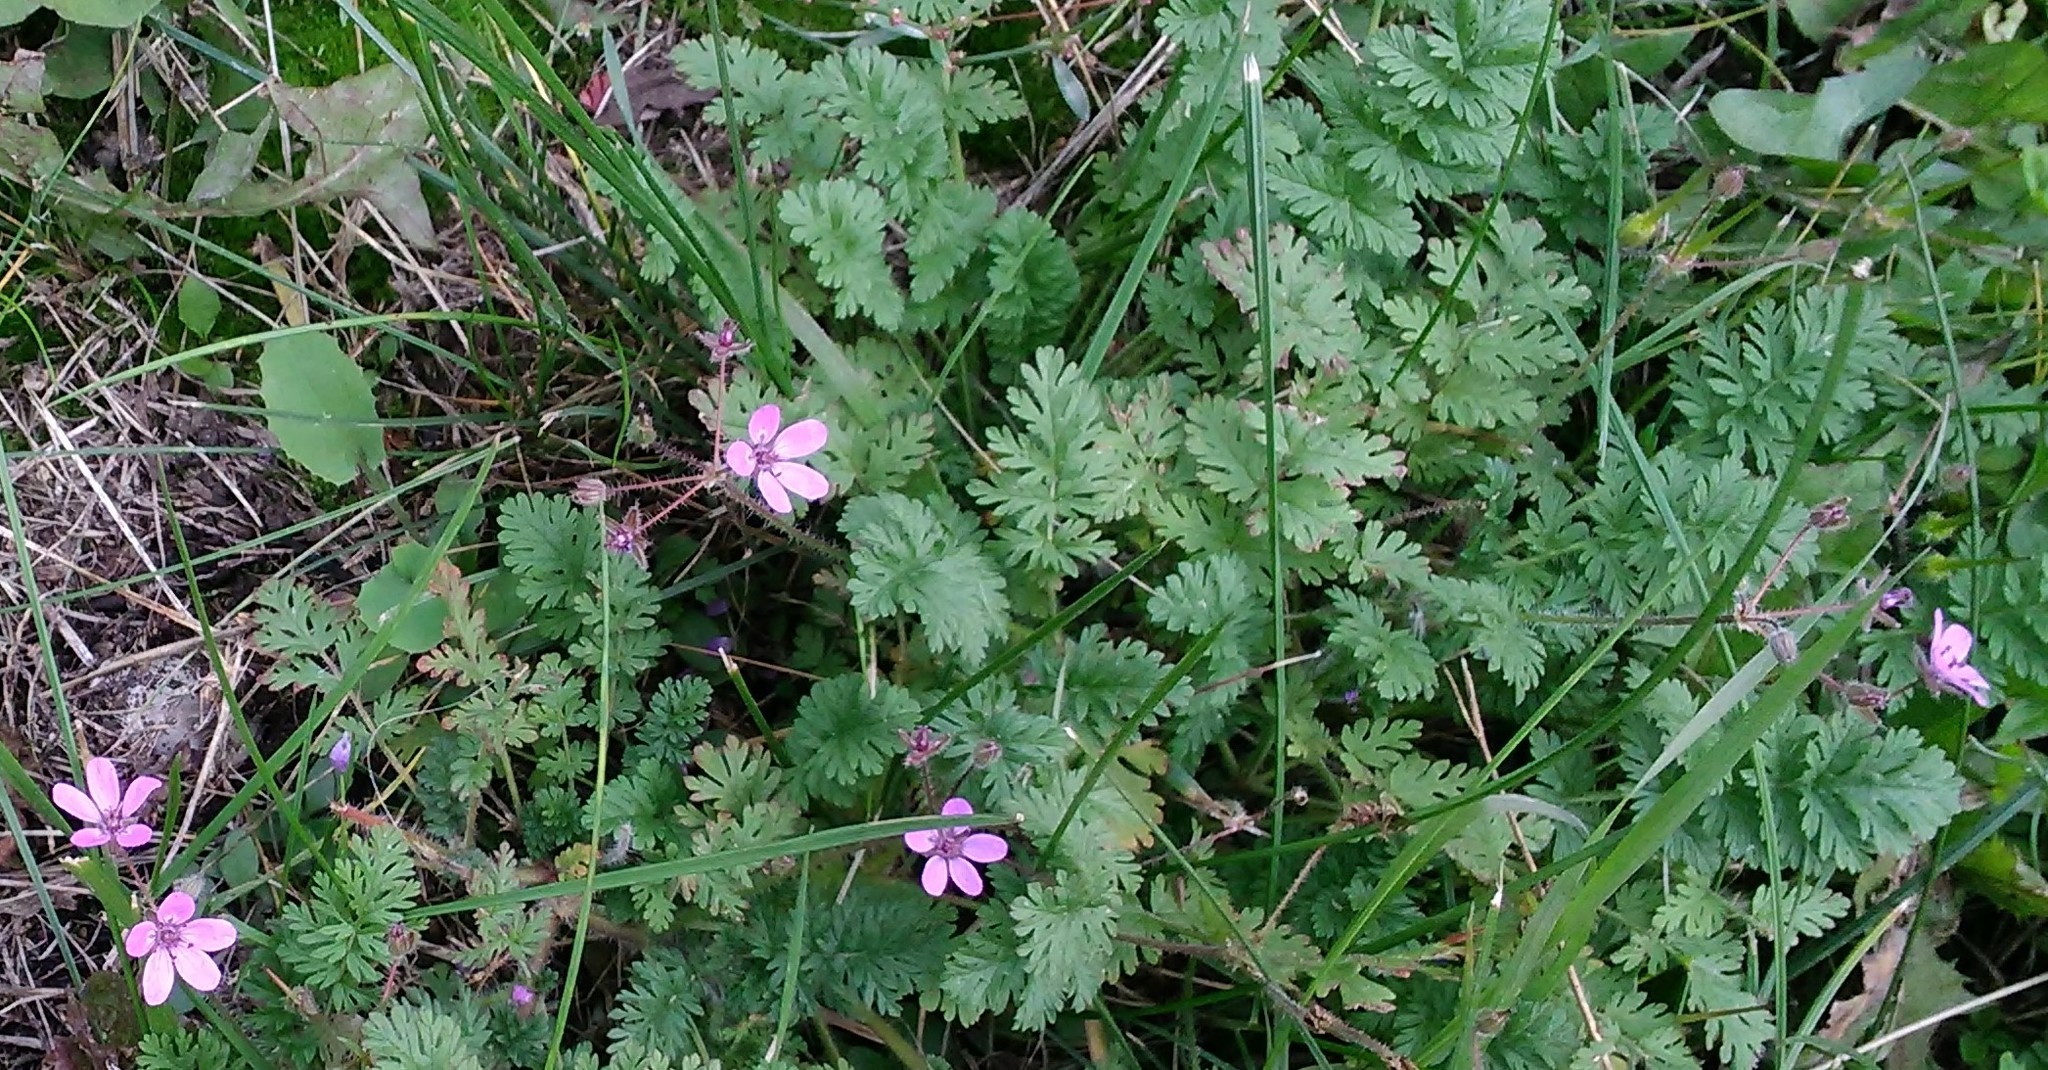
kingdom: Plantae
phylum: Tracheophyta
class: Magnoliopsida
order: Geraniales
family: Geraniaceae
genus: Erodium
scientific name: Erodium cicutarium
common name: Common stork's-bill
